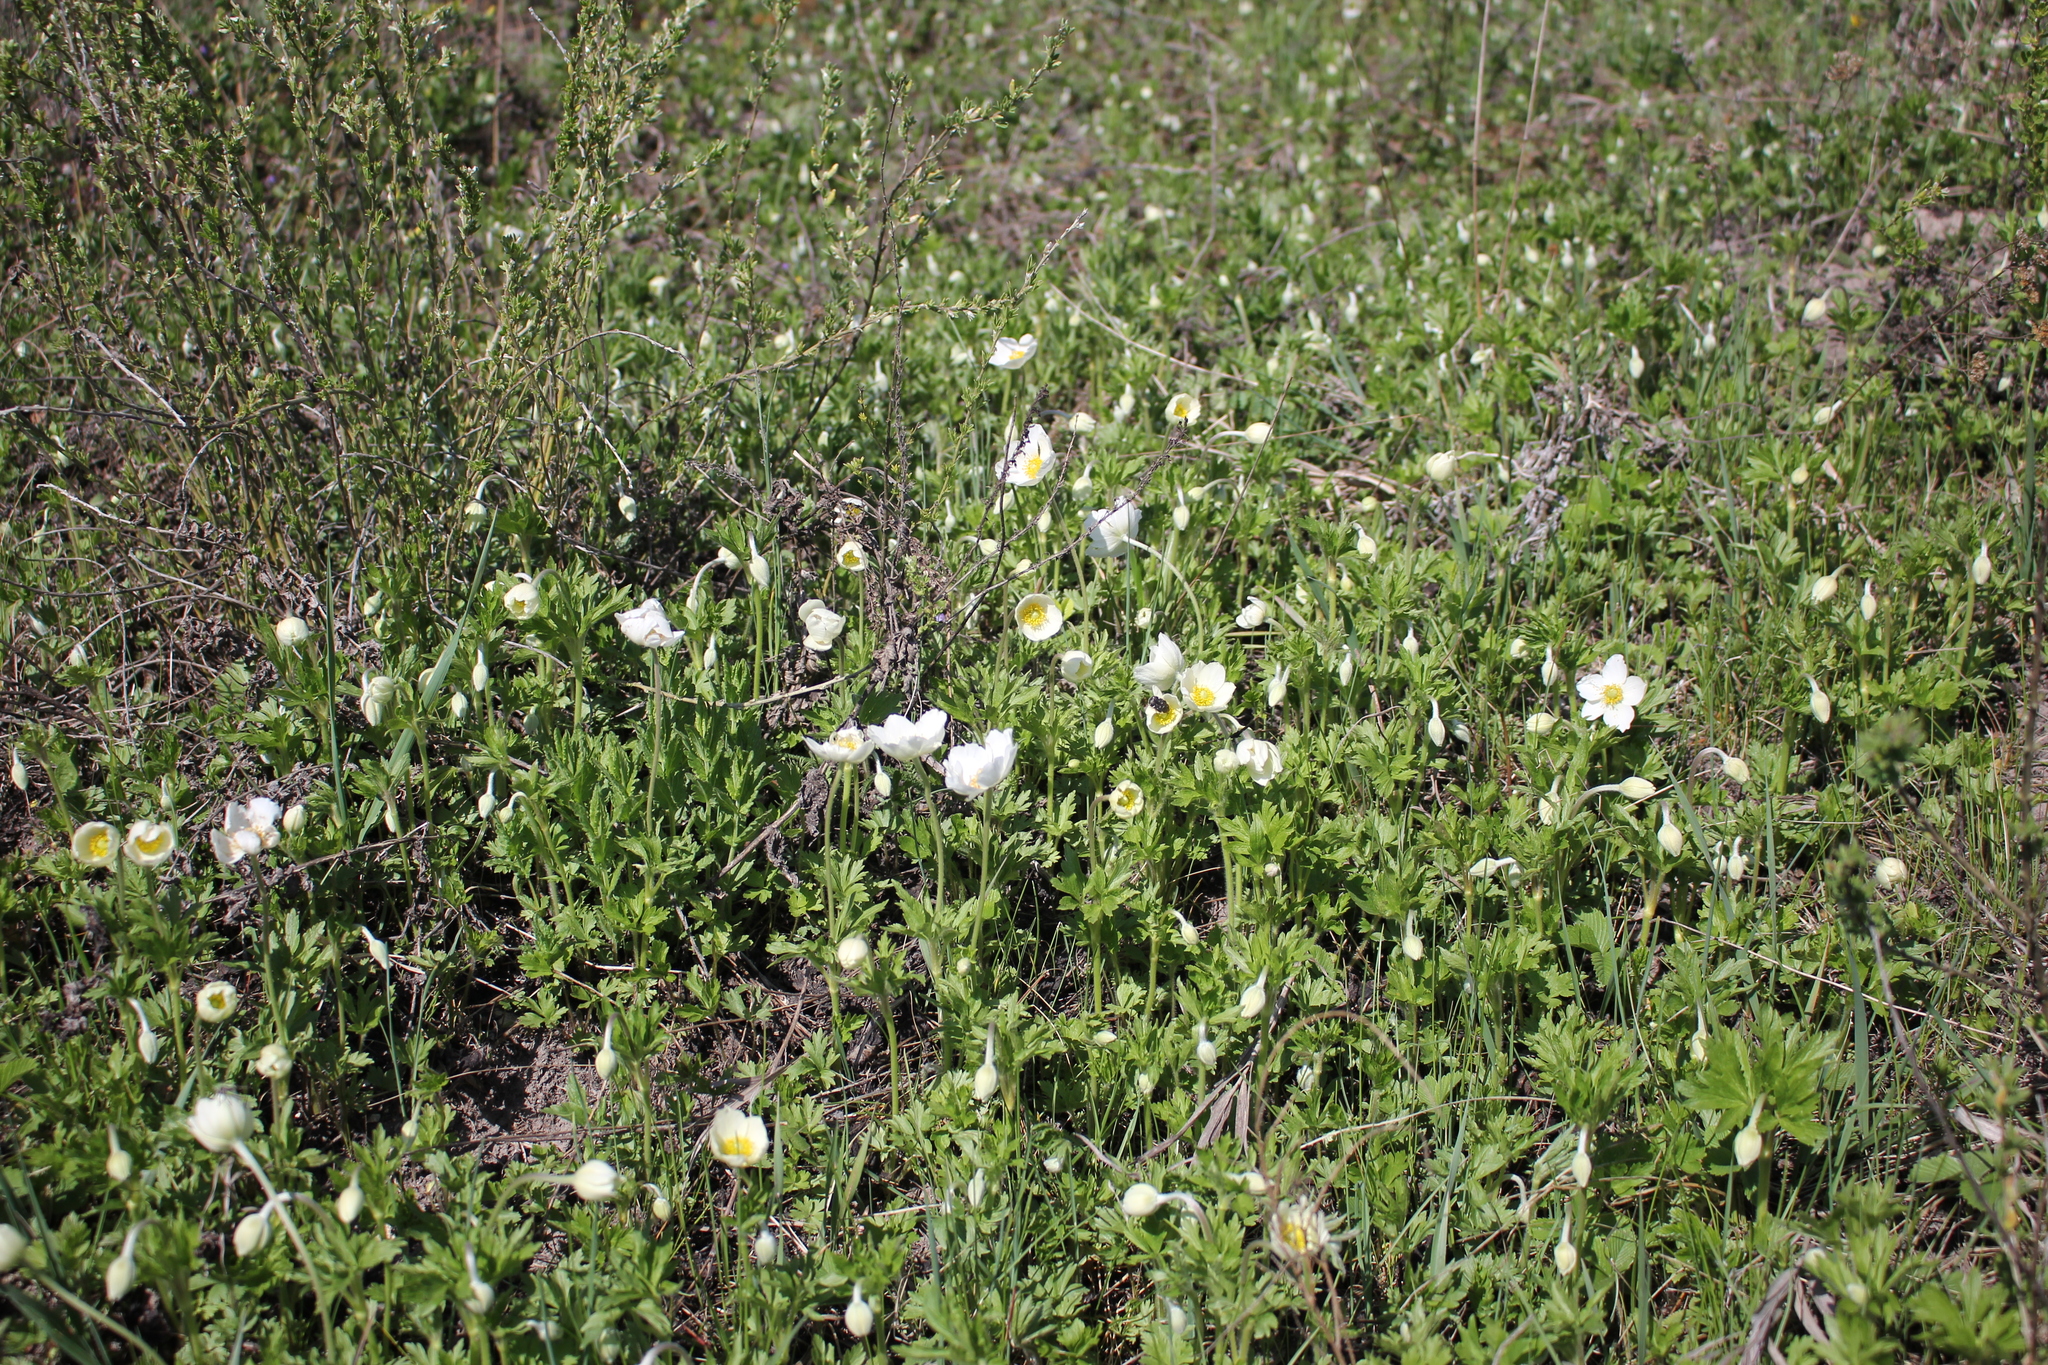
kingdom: Plantae
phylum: Tracheophyta
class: Magnoliopsida
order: Ranunculales
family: Ranunculaceae
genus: Anemone
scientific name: Anemone sylvestris
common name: Snowdrop anemone
